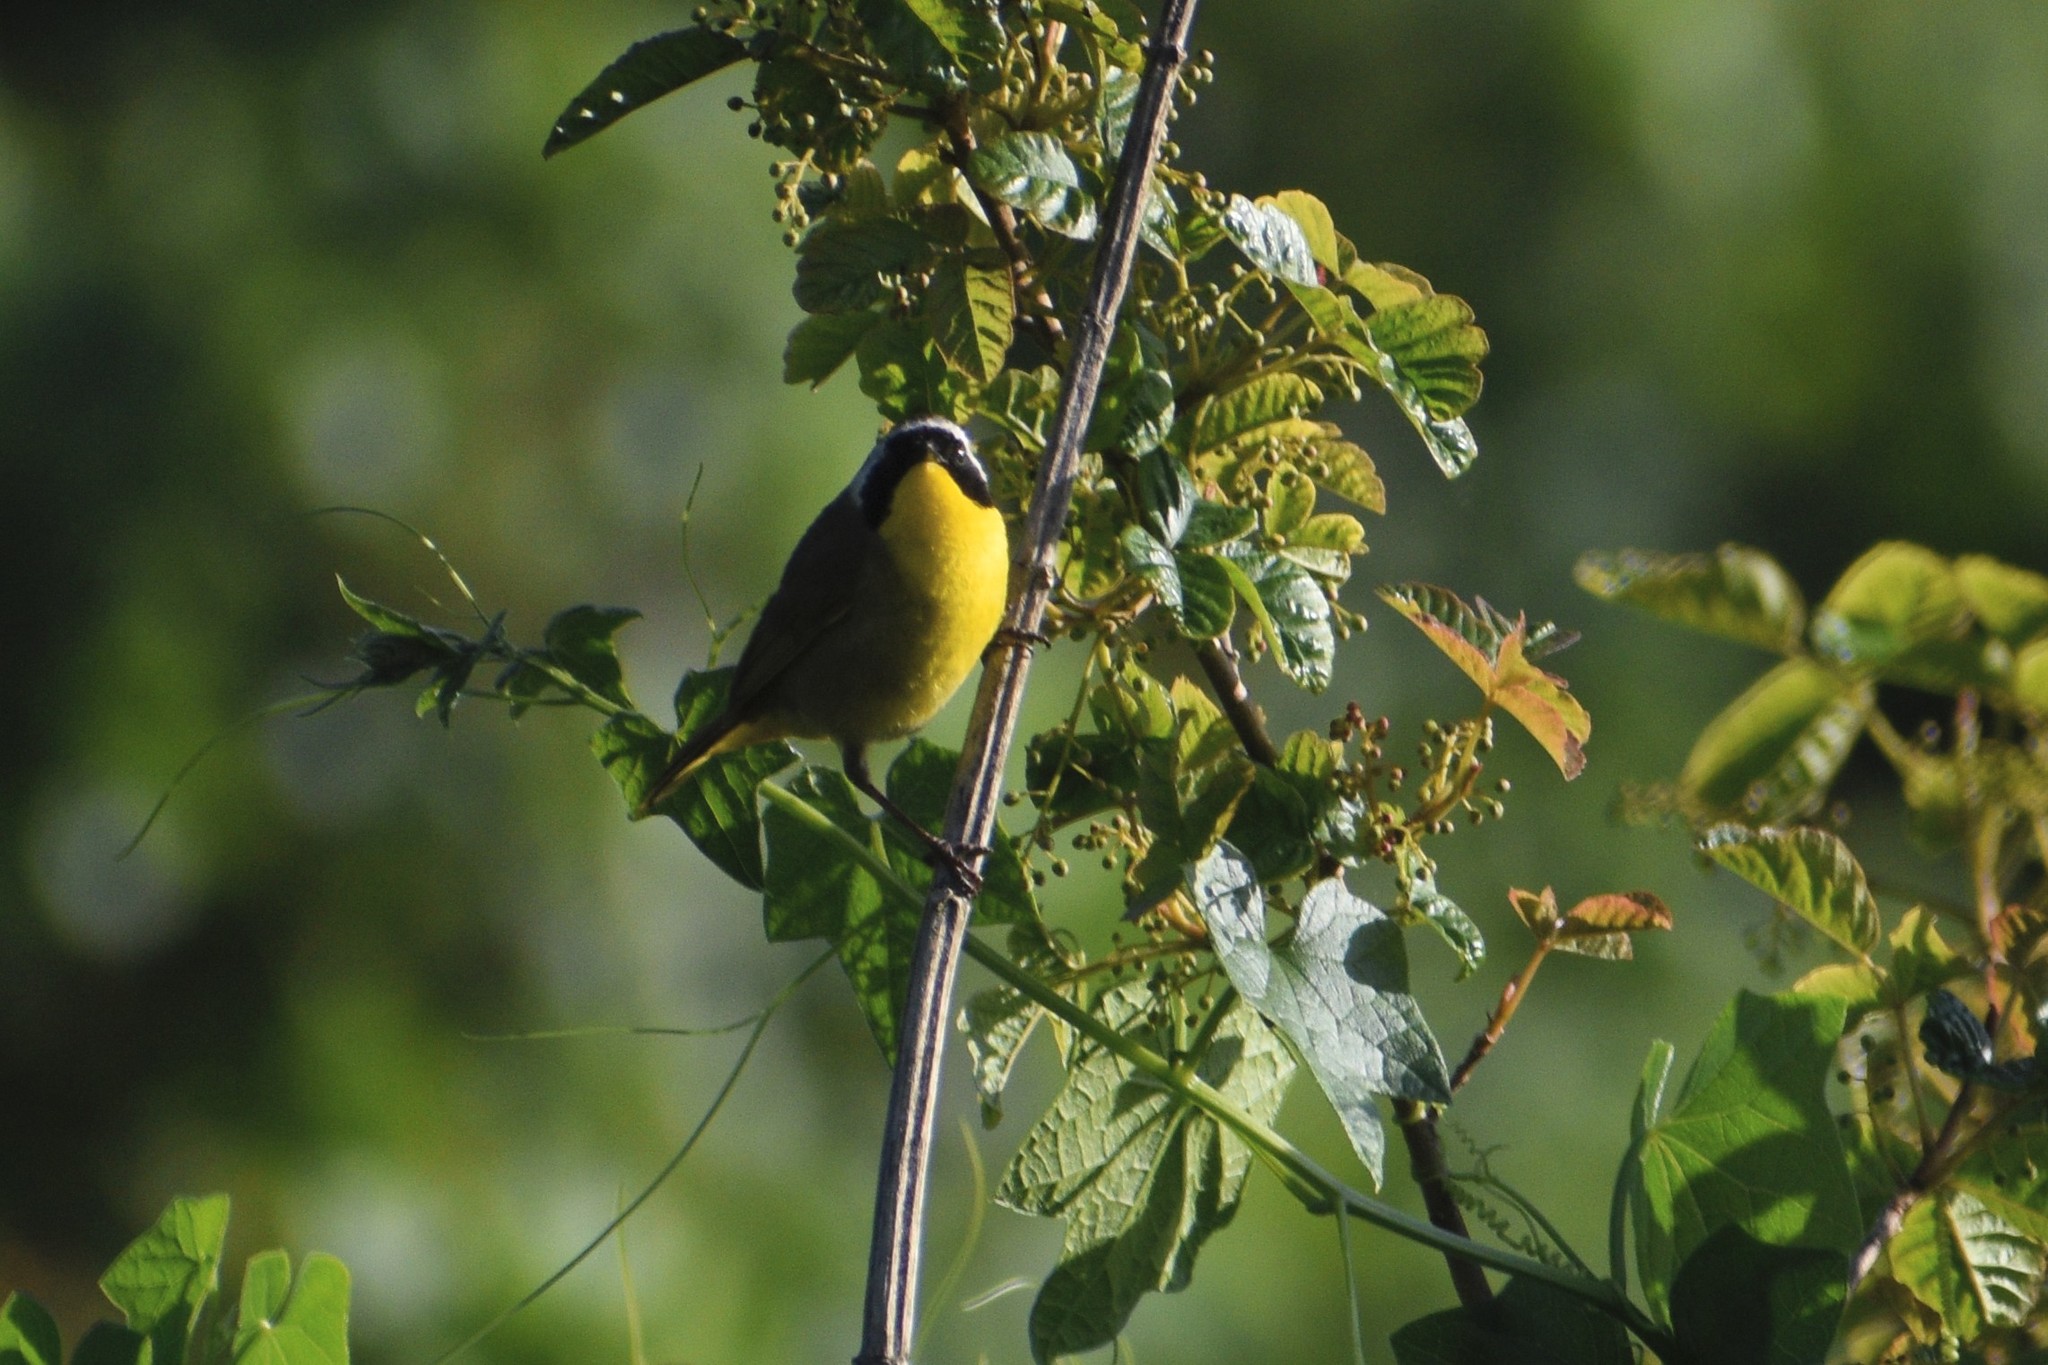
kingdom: Animalia
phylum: Chordata
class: Aves
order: Passeriformes
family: Parulidae
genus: Geothlypis
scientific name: Geothlypis trichas
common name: Common yellowthroat
